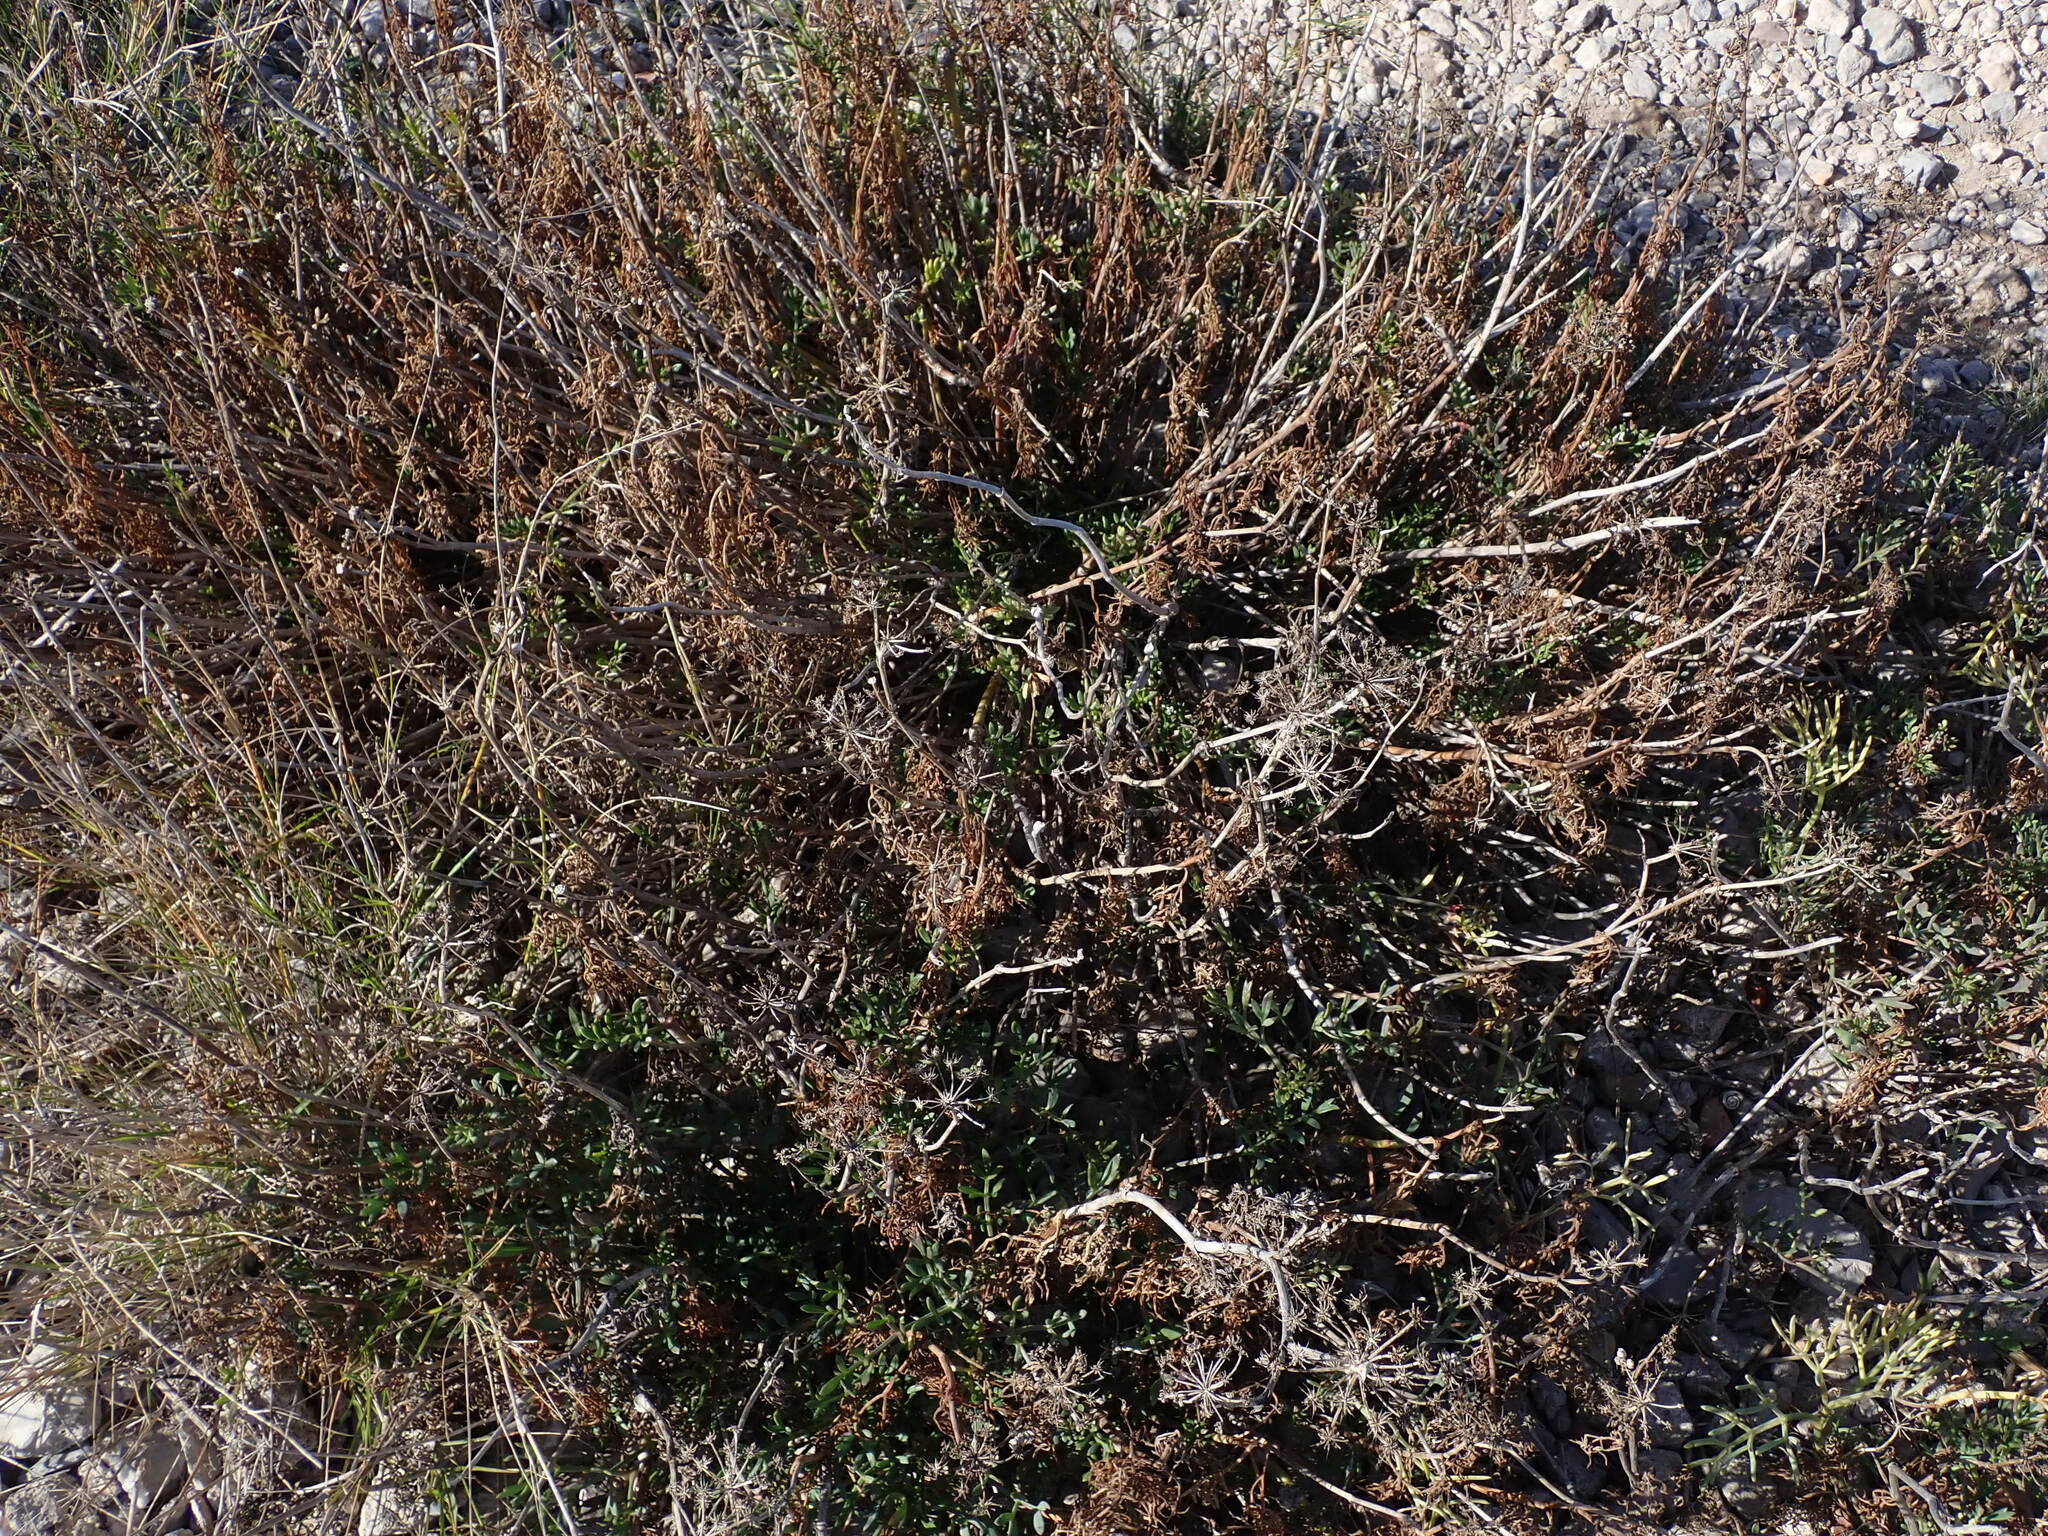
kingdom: Plantae
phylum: Tracheophyta
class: Magnoliopsida
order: Apiales
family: Apiaceae
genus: Crithmum
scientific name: Crithmum maritimum
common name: Rock samphire
